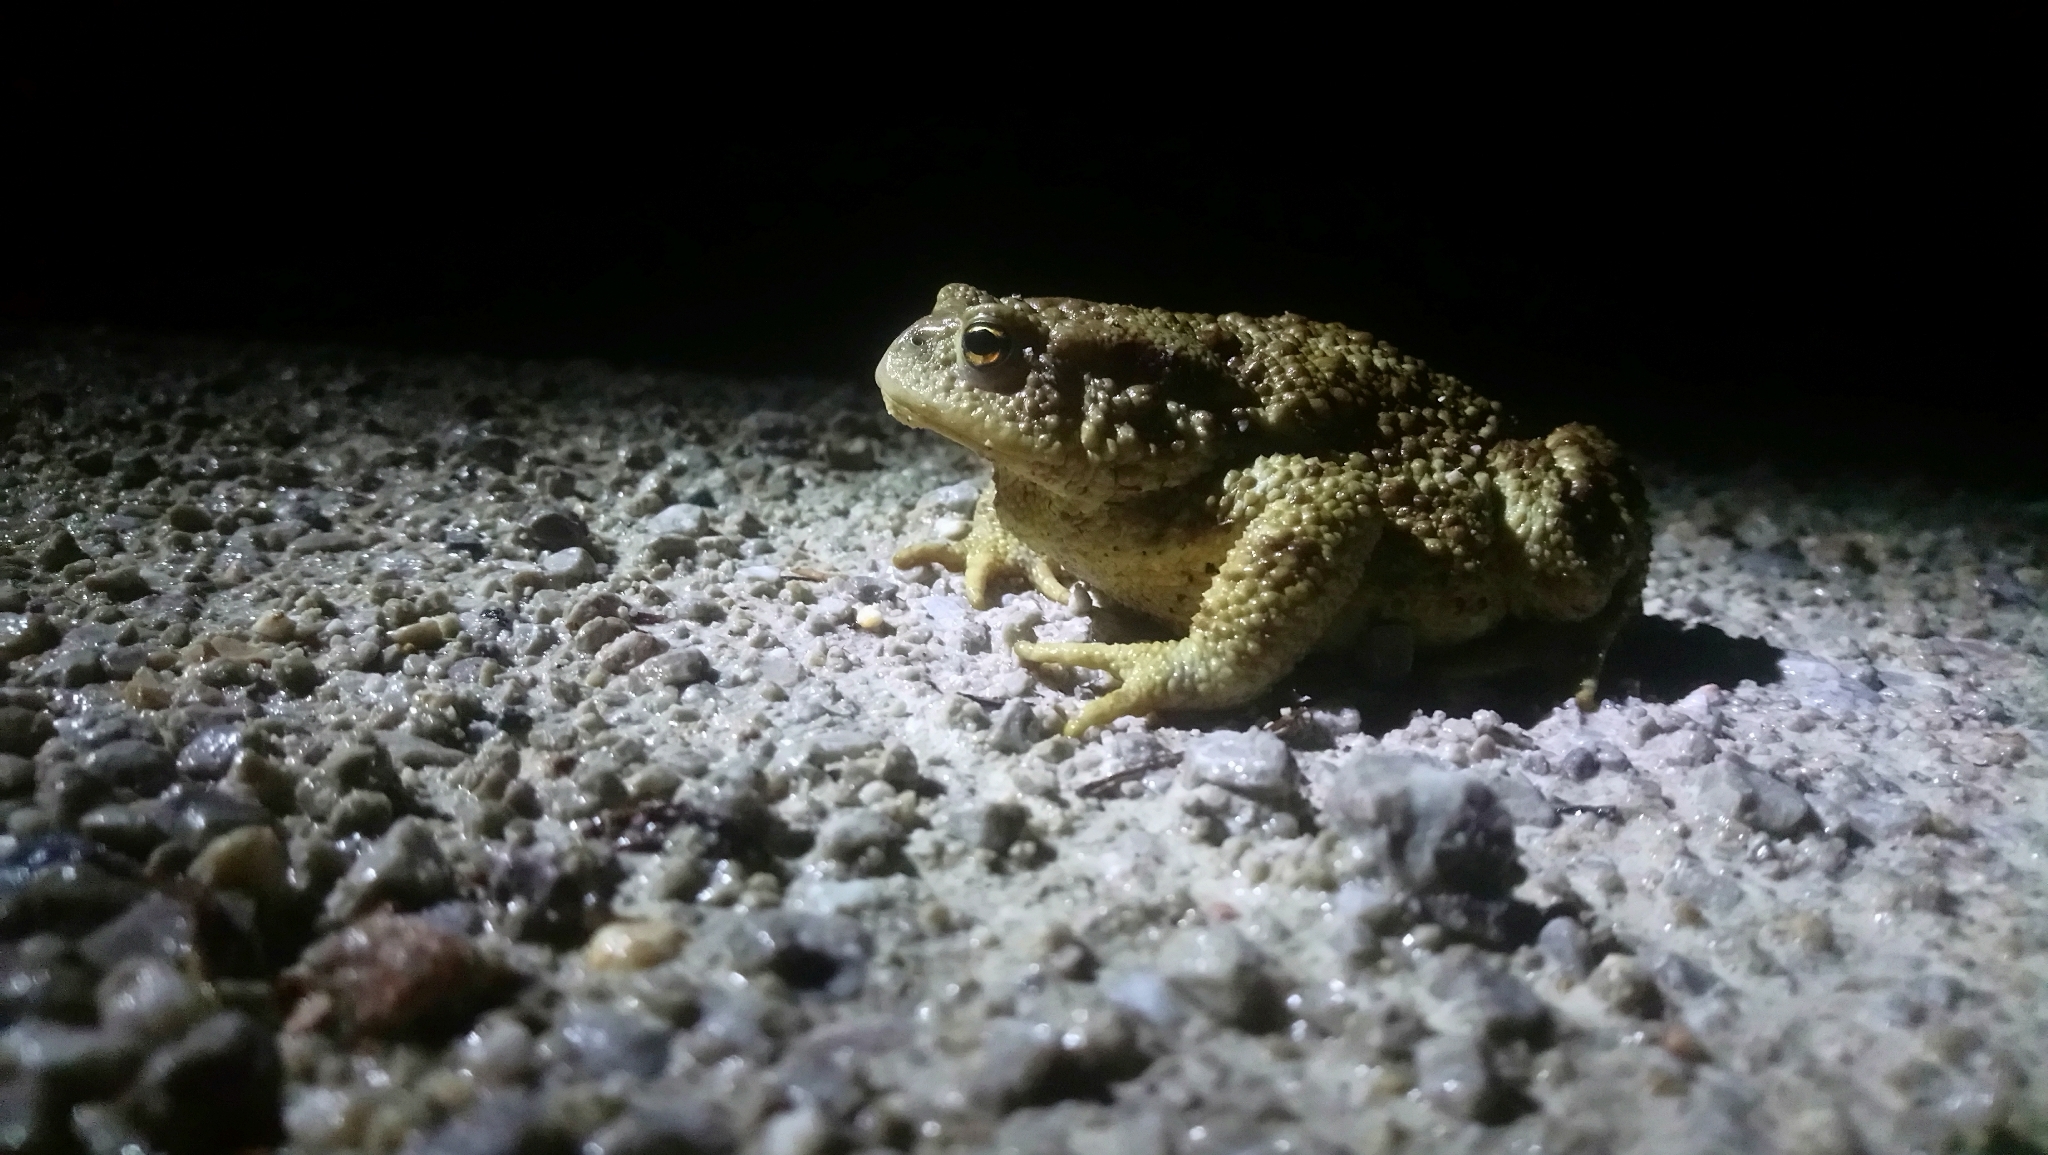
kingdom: Animalia
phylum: Chordata
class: Amphibia
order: Anura
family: Bufonidae
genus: Bufo
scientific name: Bufo bufo
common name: Common toad
